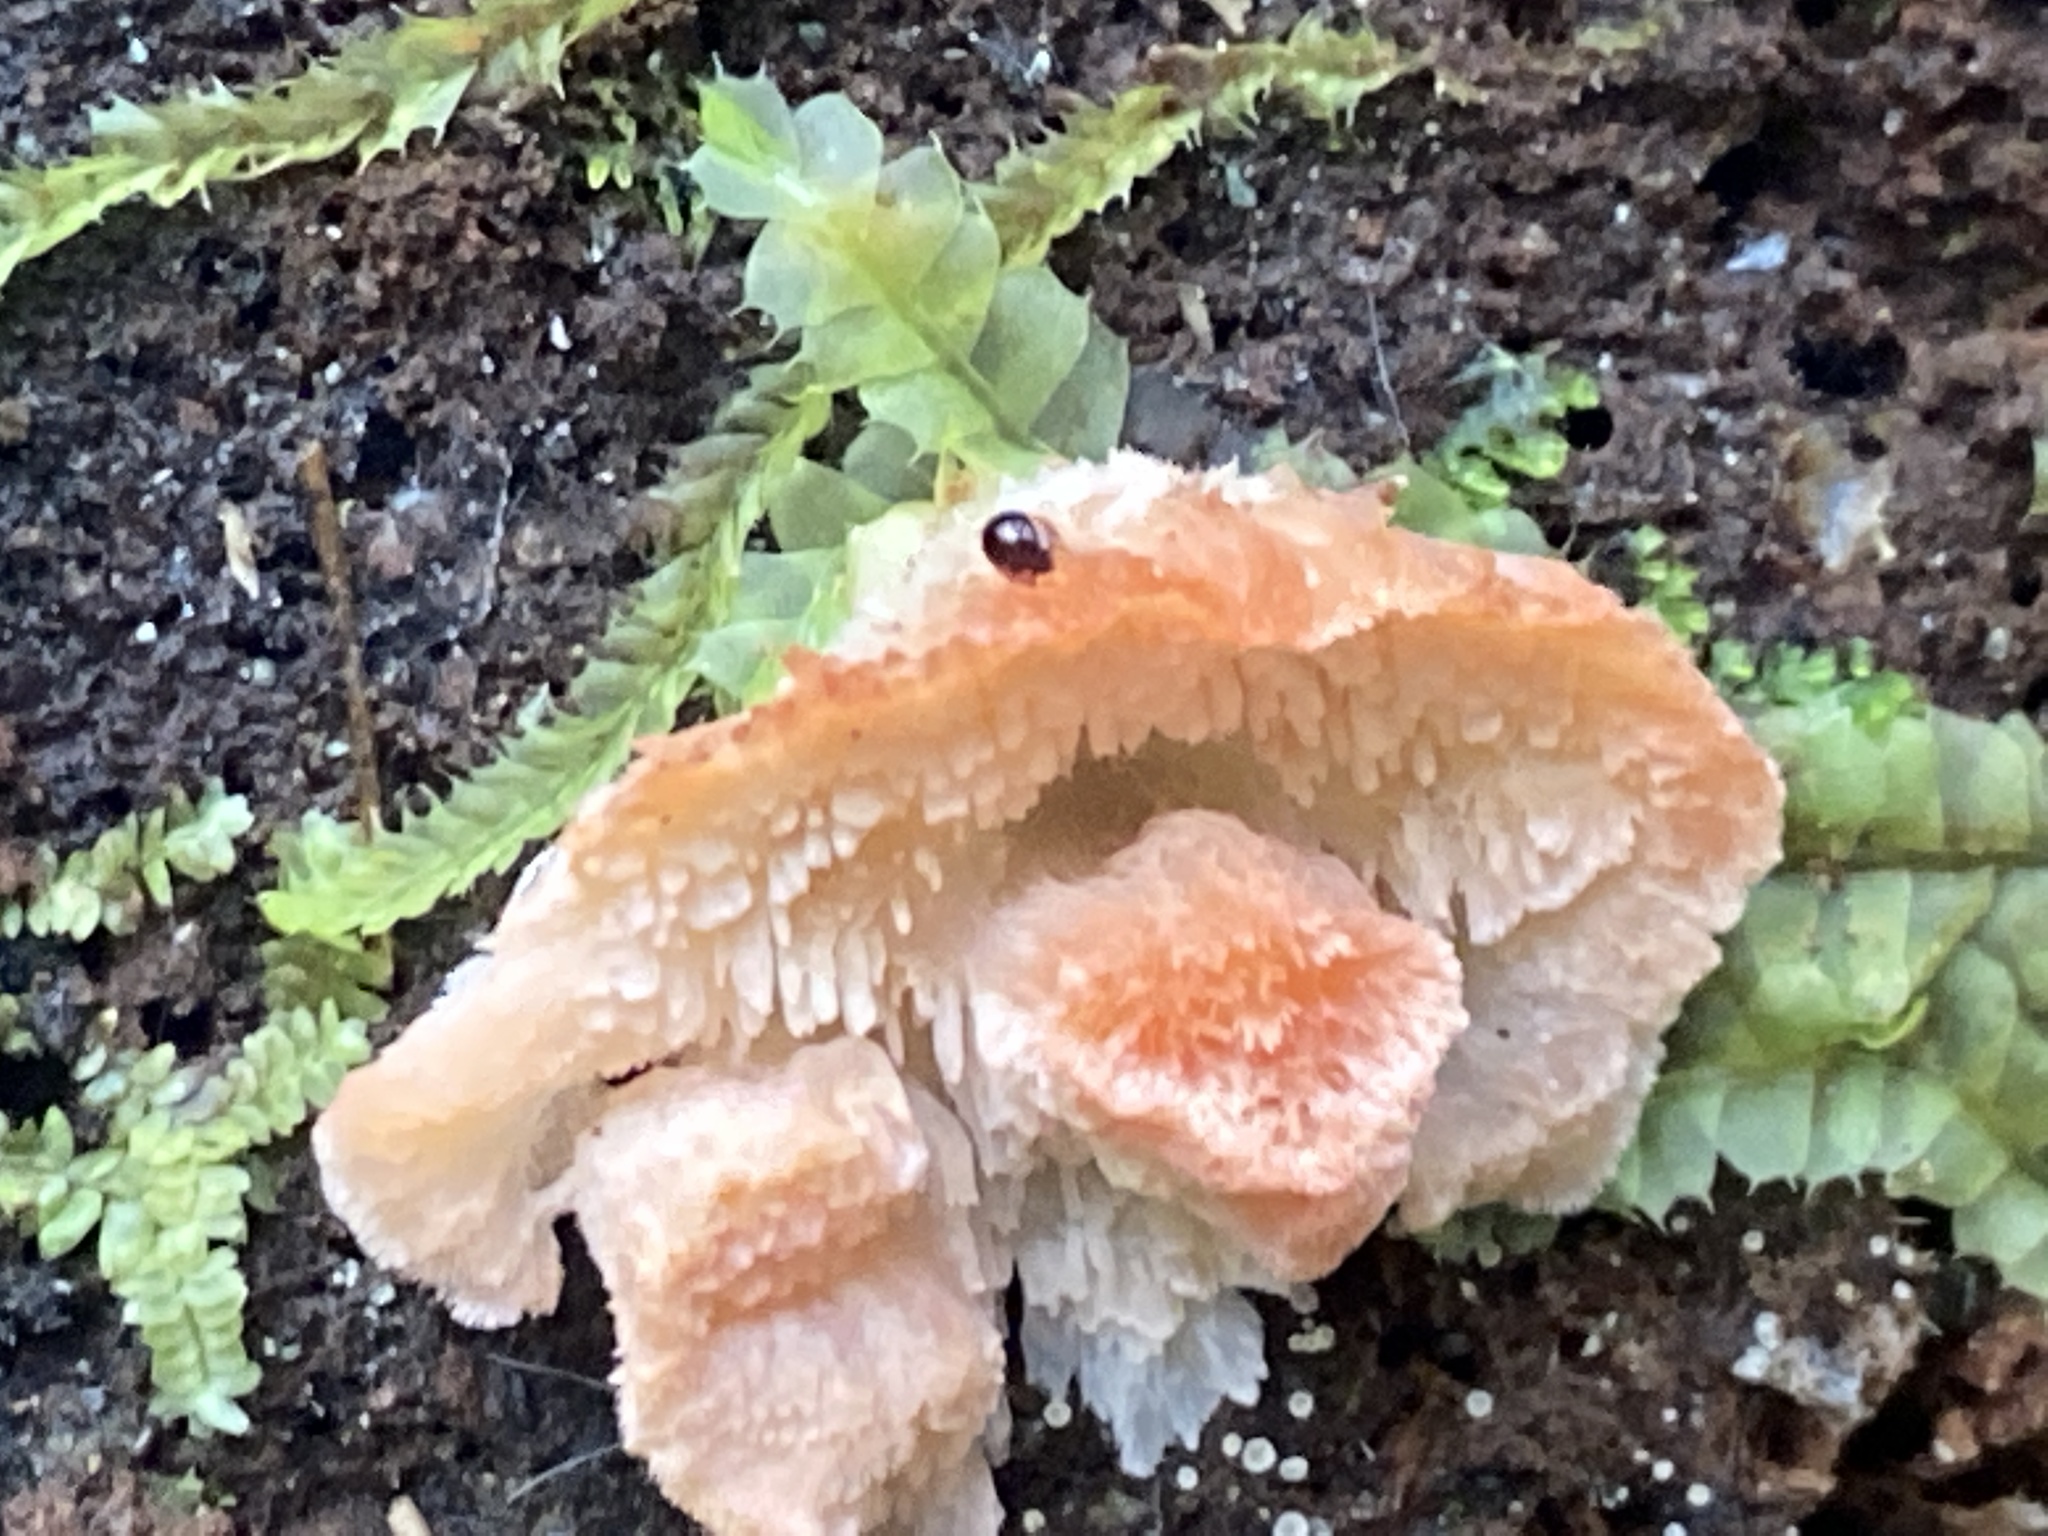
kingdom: Fungi
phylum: Basidiomycota
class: Agaricomycetes
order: Polyporales
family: Incrustoporiaceae
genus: Tyromyces
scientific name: Tyromyces pulcherrimus
